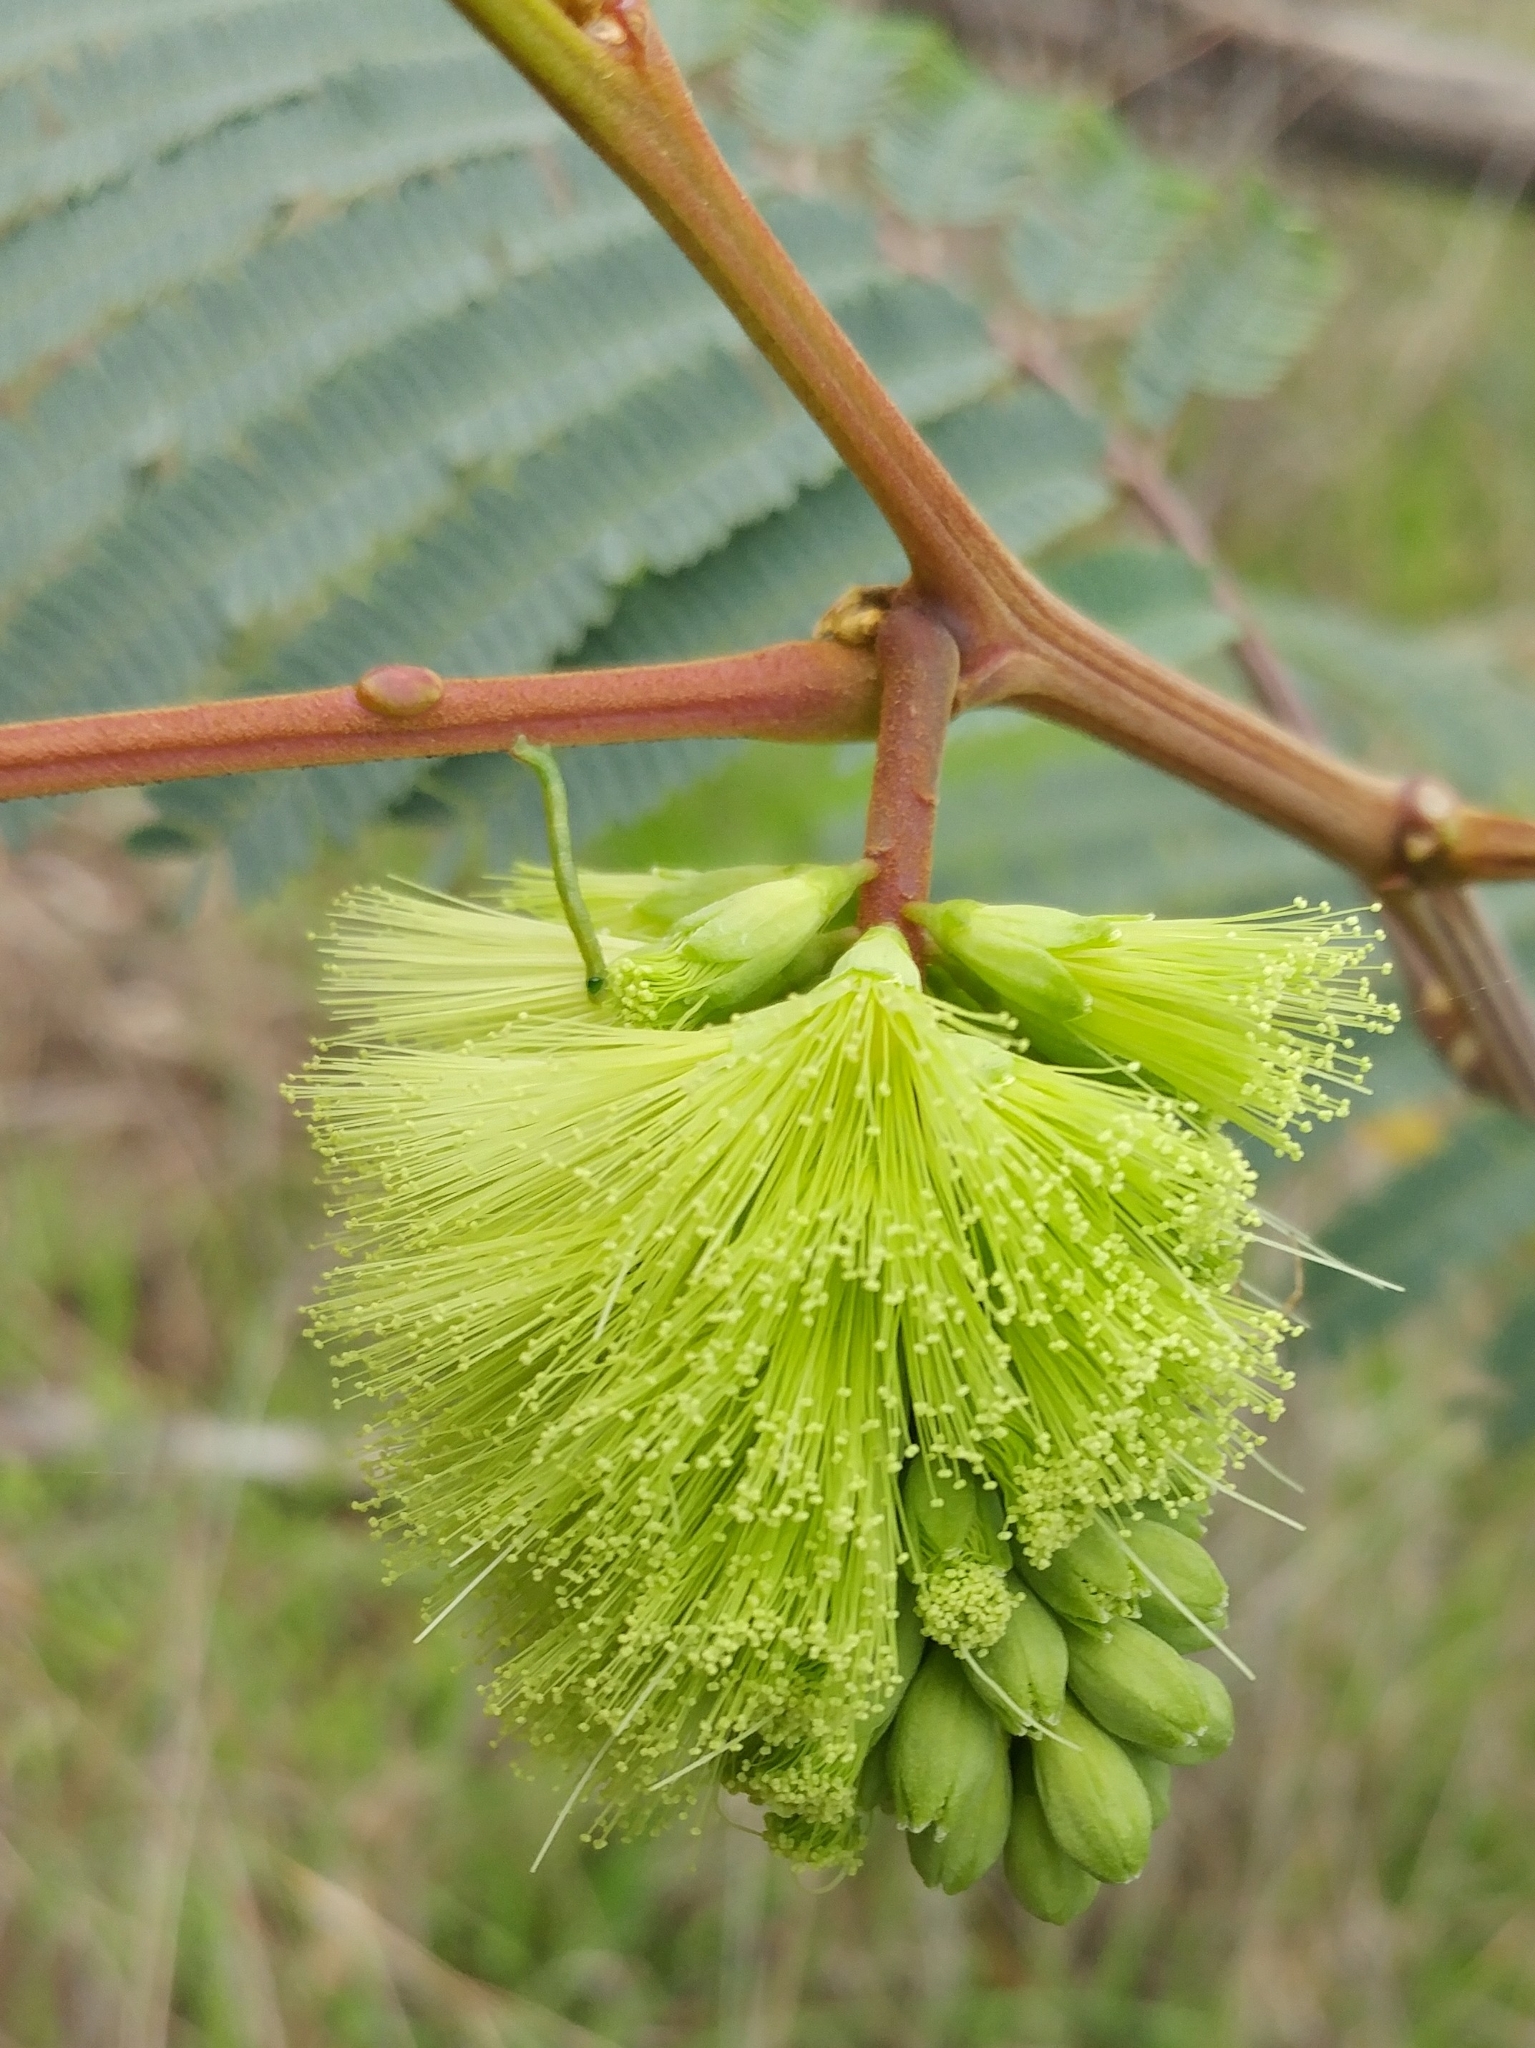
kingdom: Plantae
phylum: Tracheophyta
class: Magnoliopsida
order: Fabales
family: Fabaceae
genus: Paraserianthes
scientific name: Paraserianthes lophantha
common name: Plume albizia
